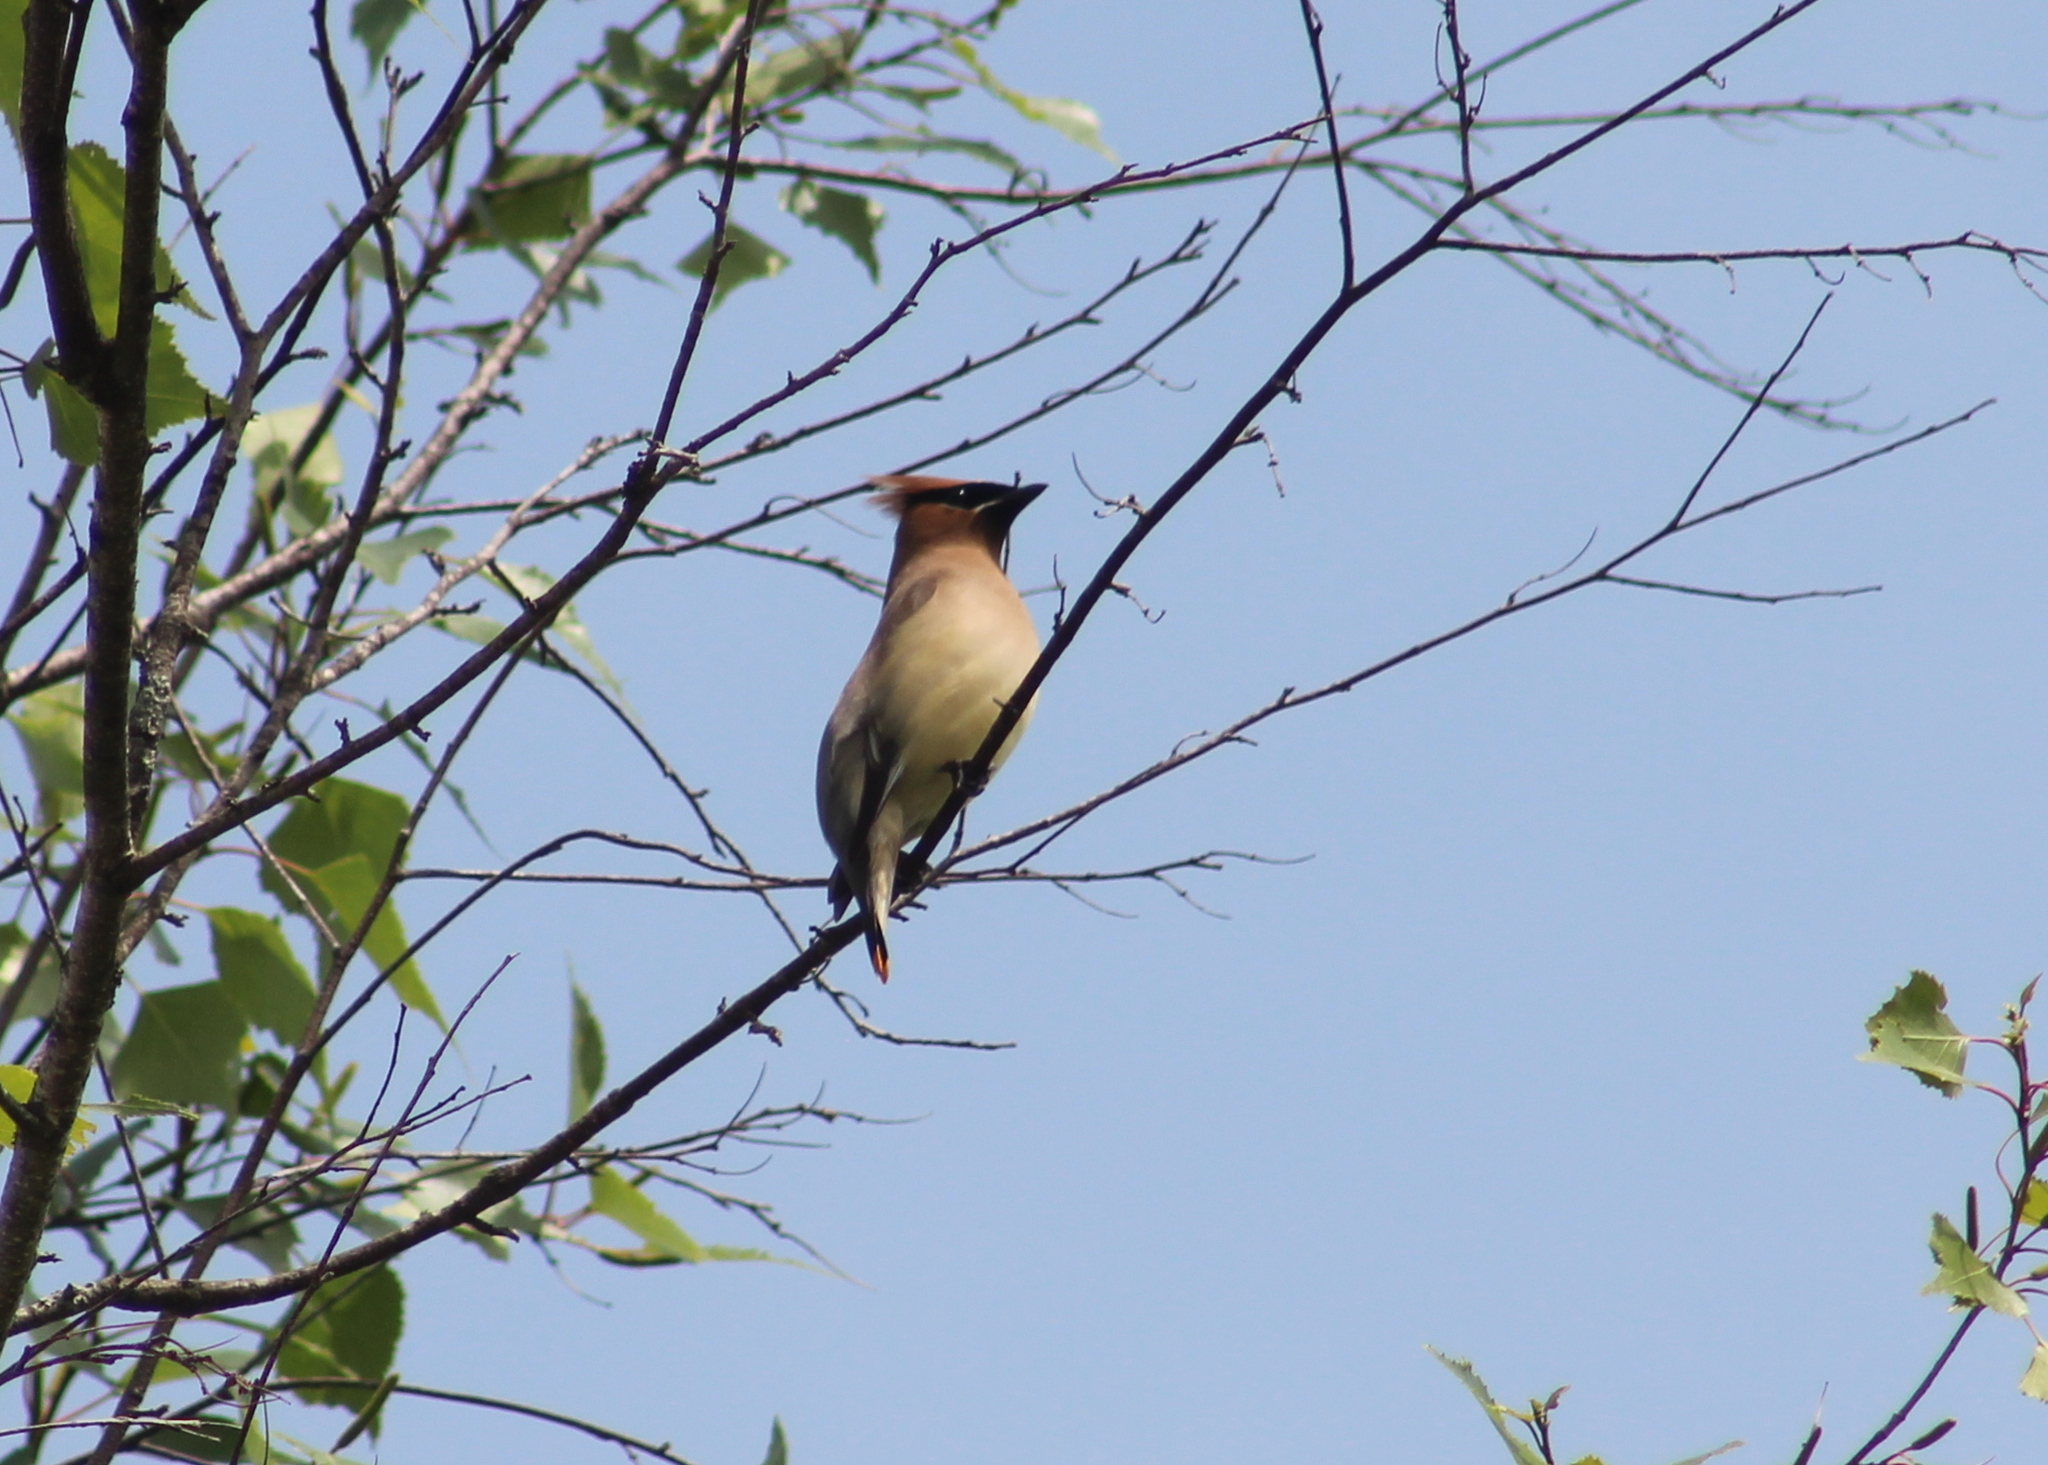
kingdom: Animalia
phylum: Chordata
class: Aves
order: Passeriformes
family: Bombycillidae
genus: Bombycilla
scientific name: Bombycilla cedrorum
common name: Cedar waxwing
